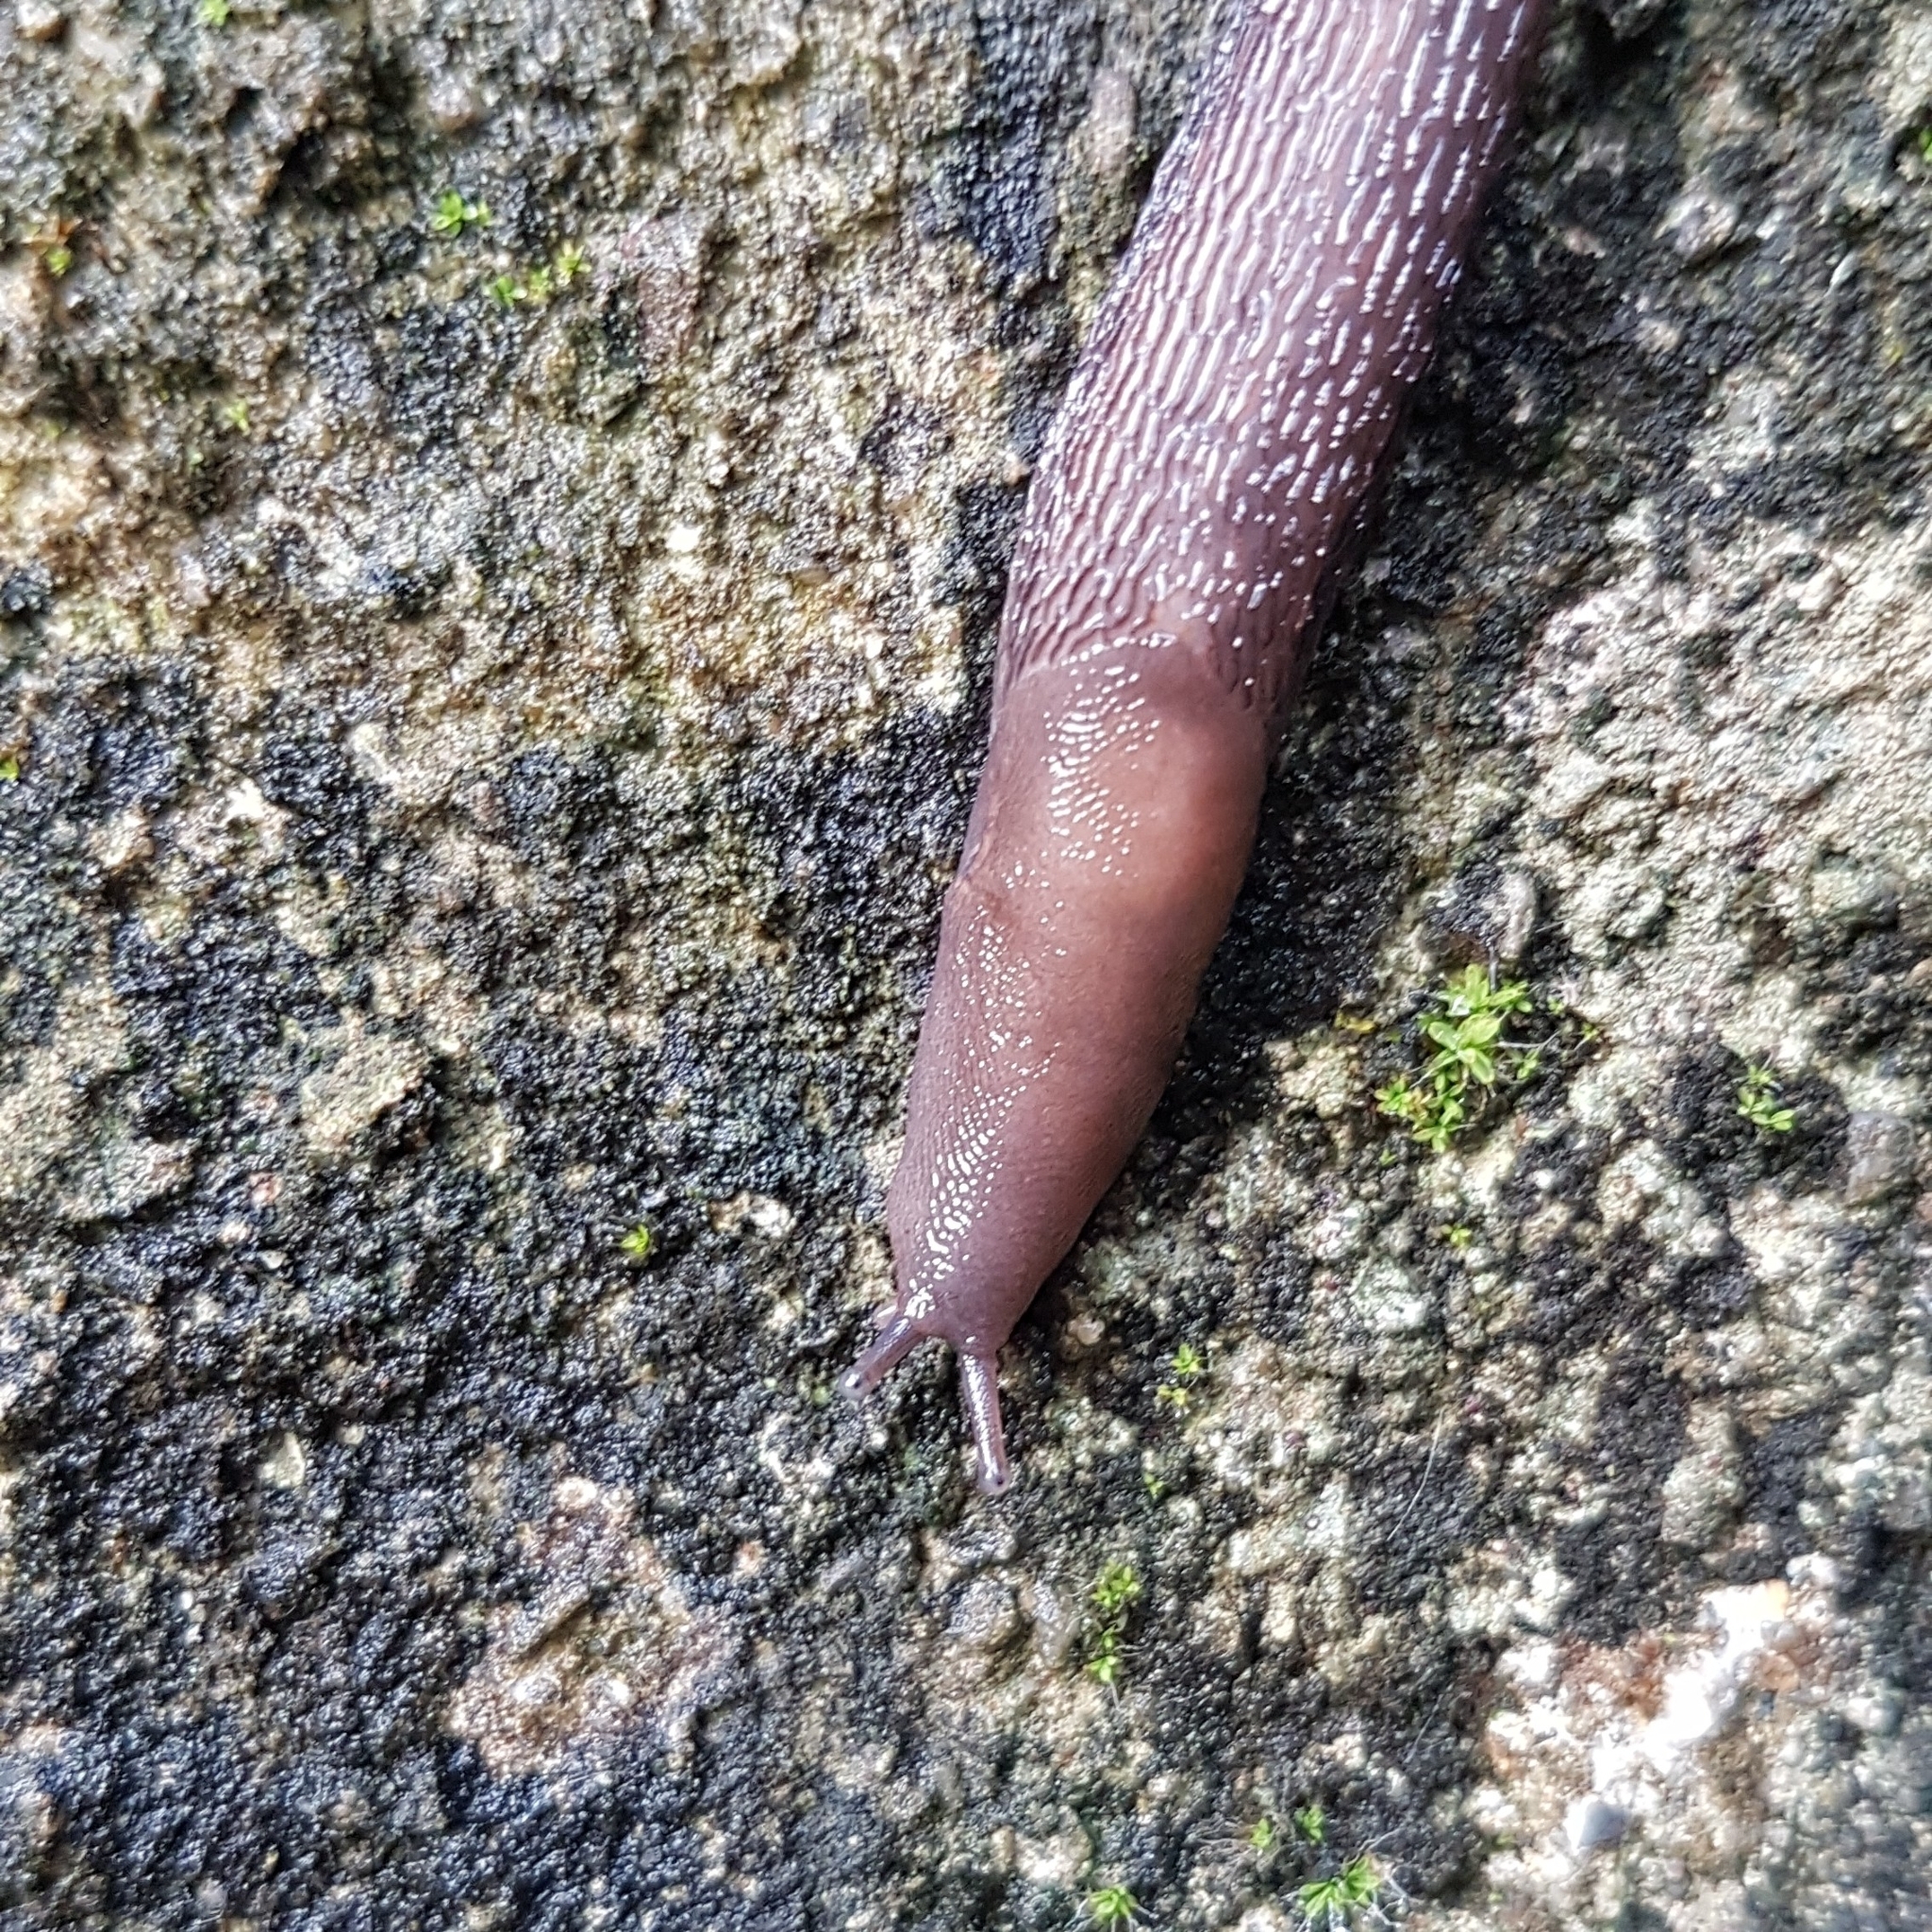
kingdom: Animalia
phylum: Mollusca
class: Gastropoda
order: Stylommatophora
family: Limacidae
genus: Limax
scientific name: Limax dacampi
